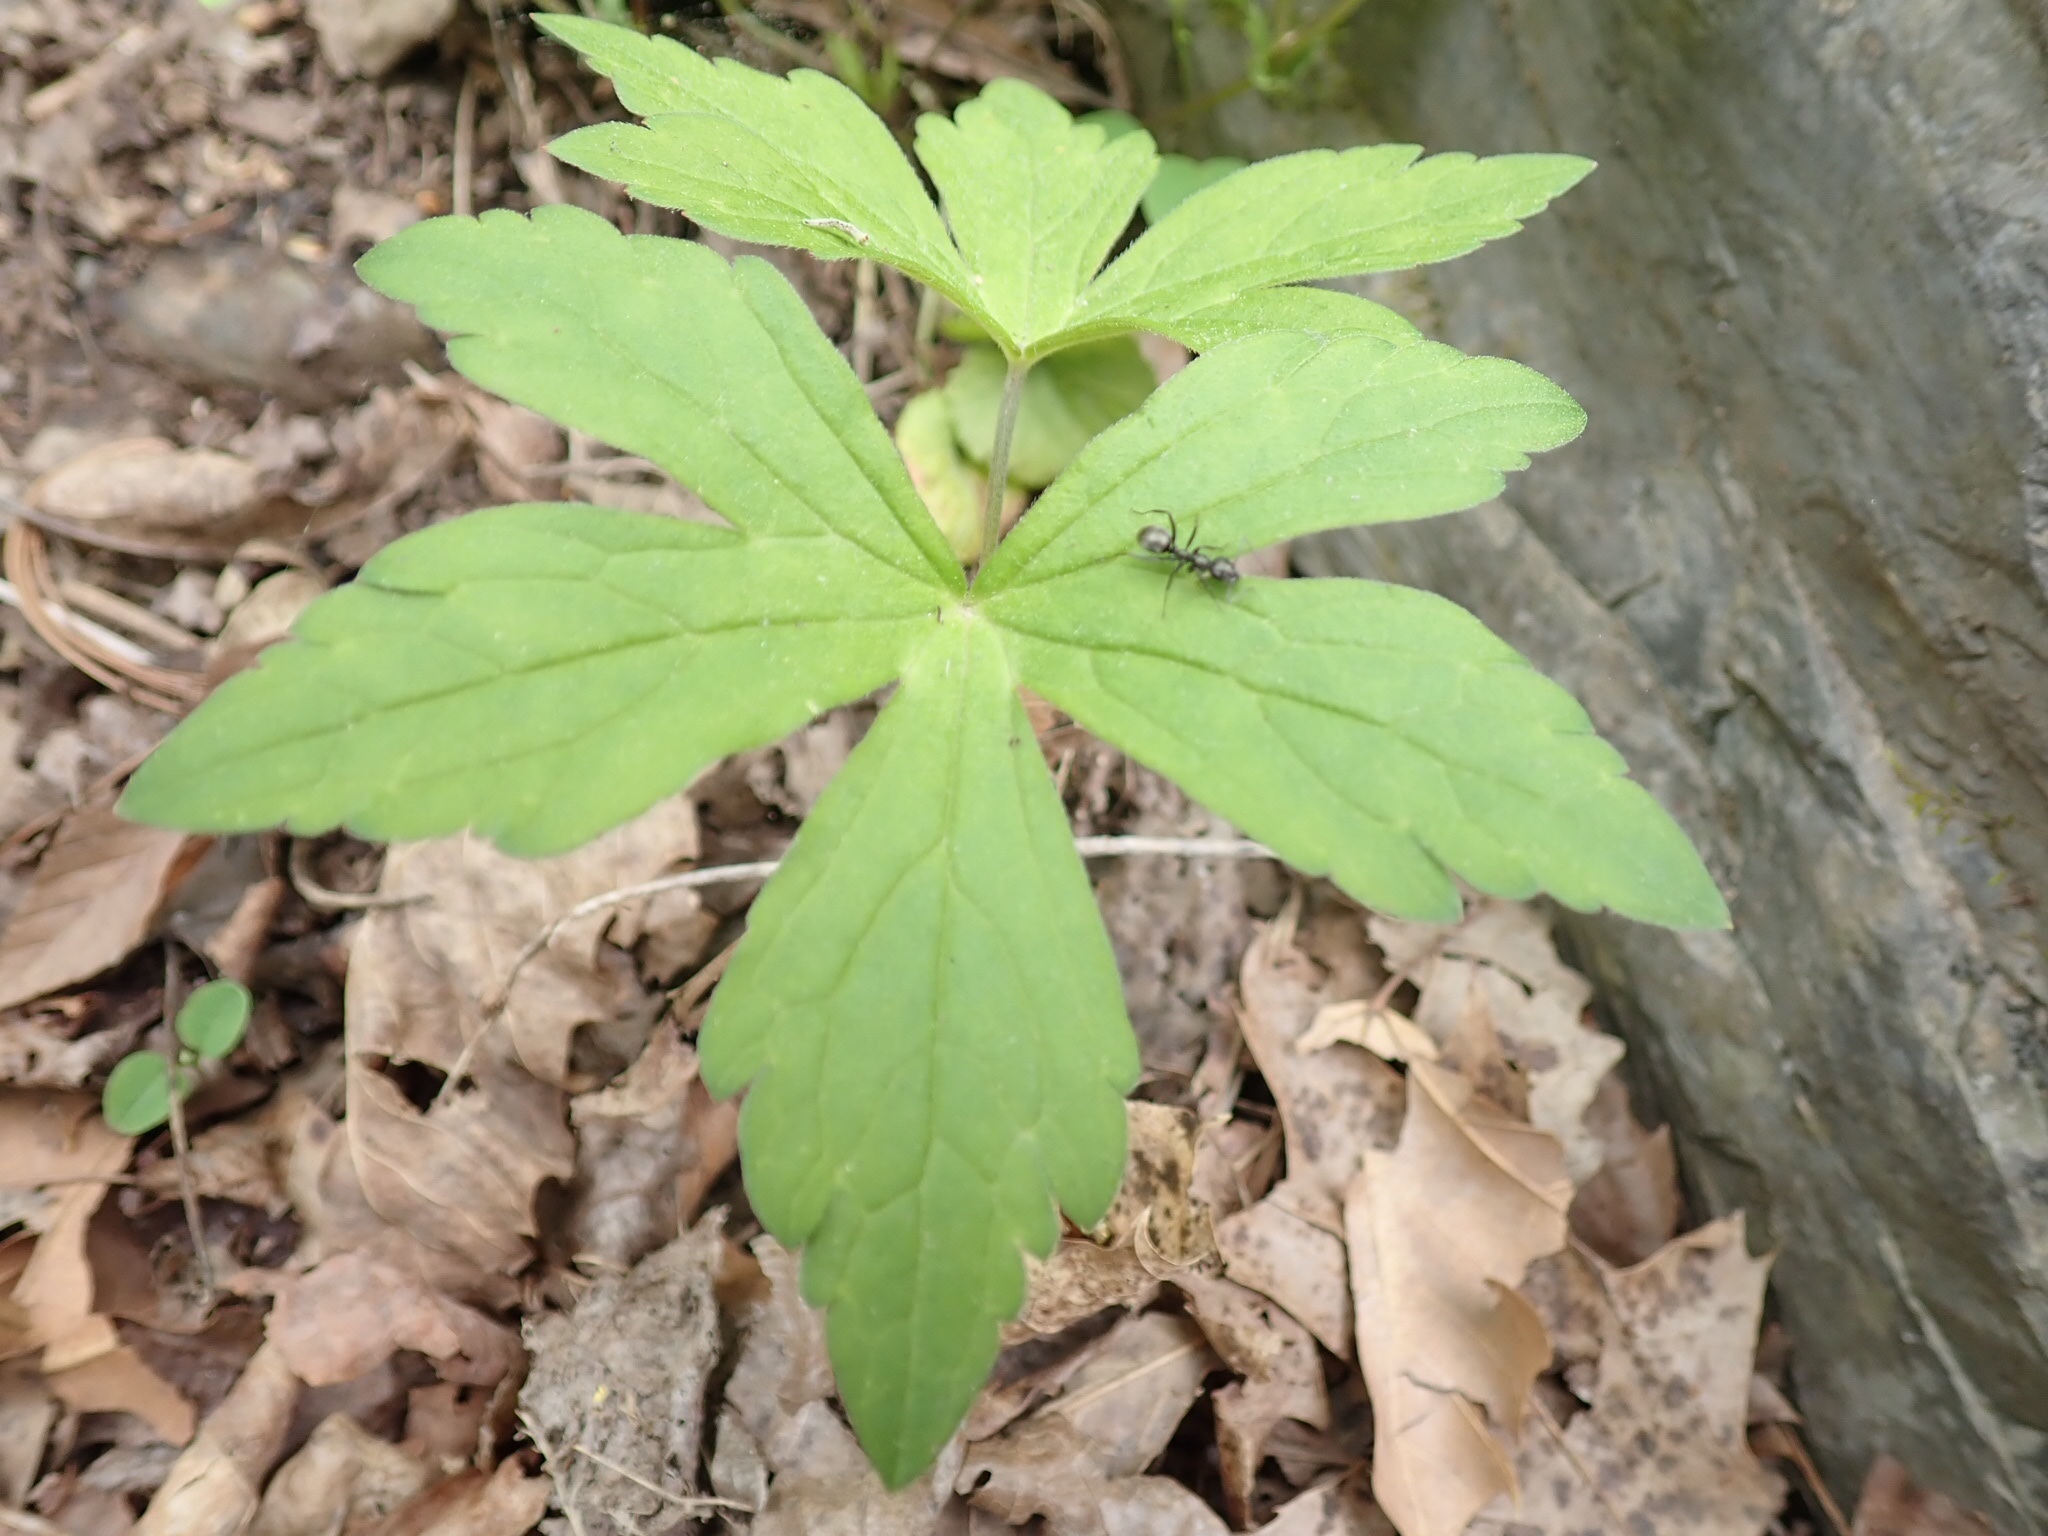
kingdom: Plantae
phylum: Tracheophyta
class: Magnoliopsida
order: Ranunculales
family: Ranunculaceae
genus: Anemonastrum
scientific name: Anemonastrum canadense
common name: Canada anemone
